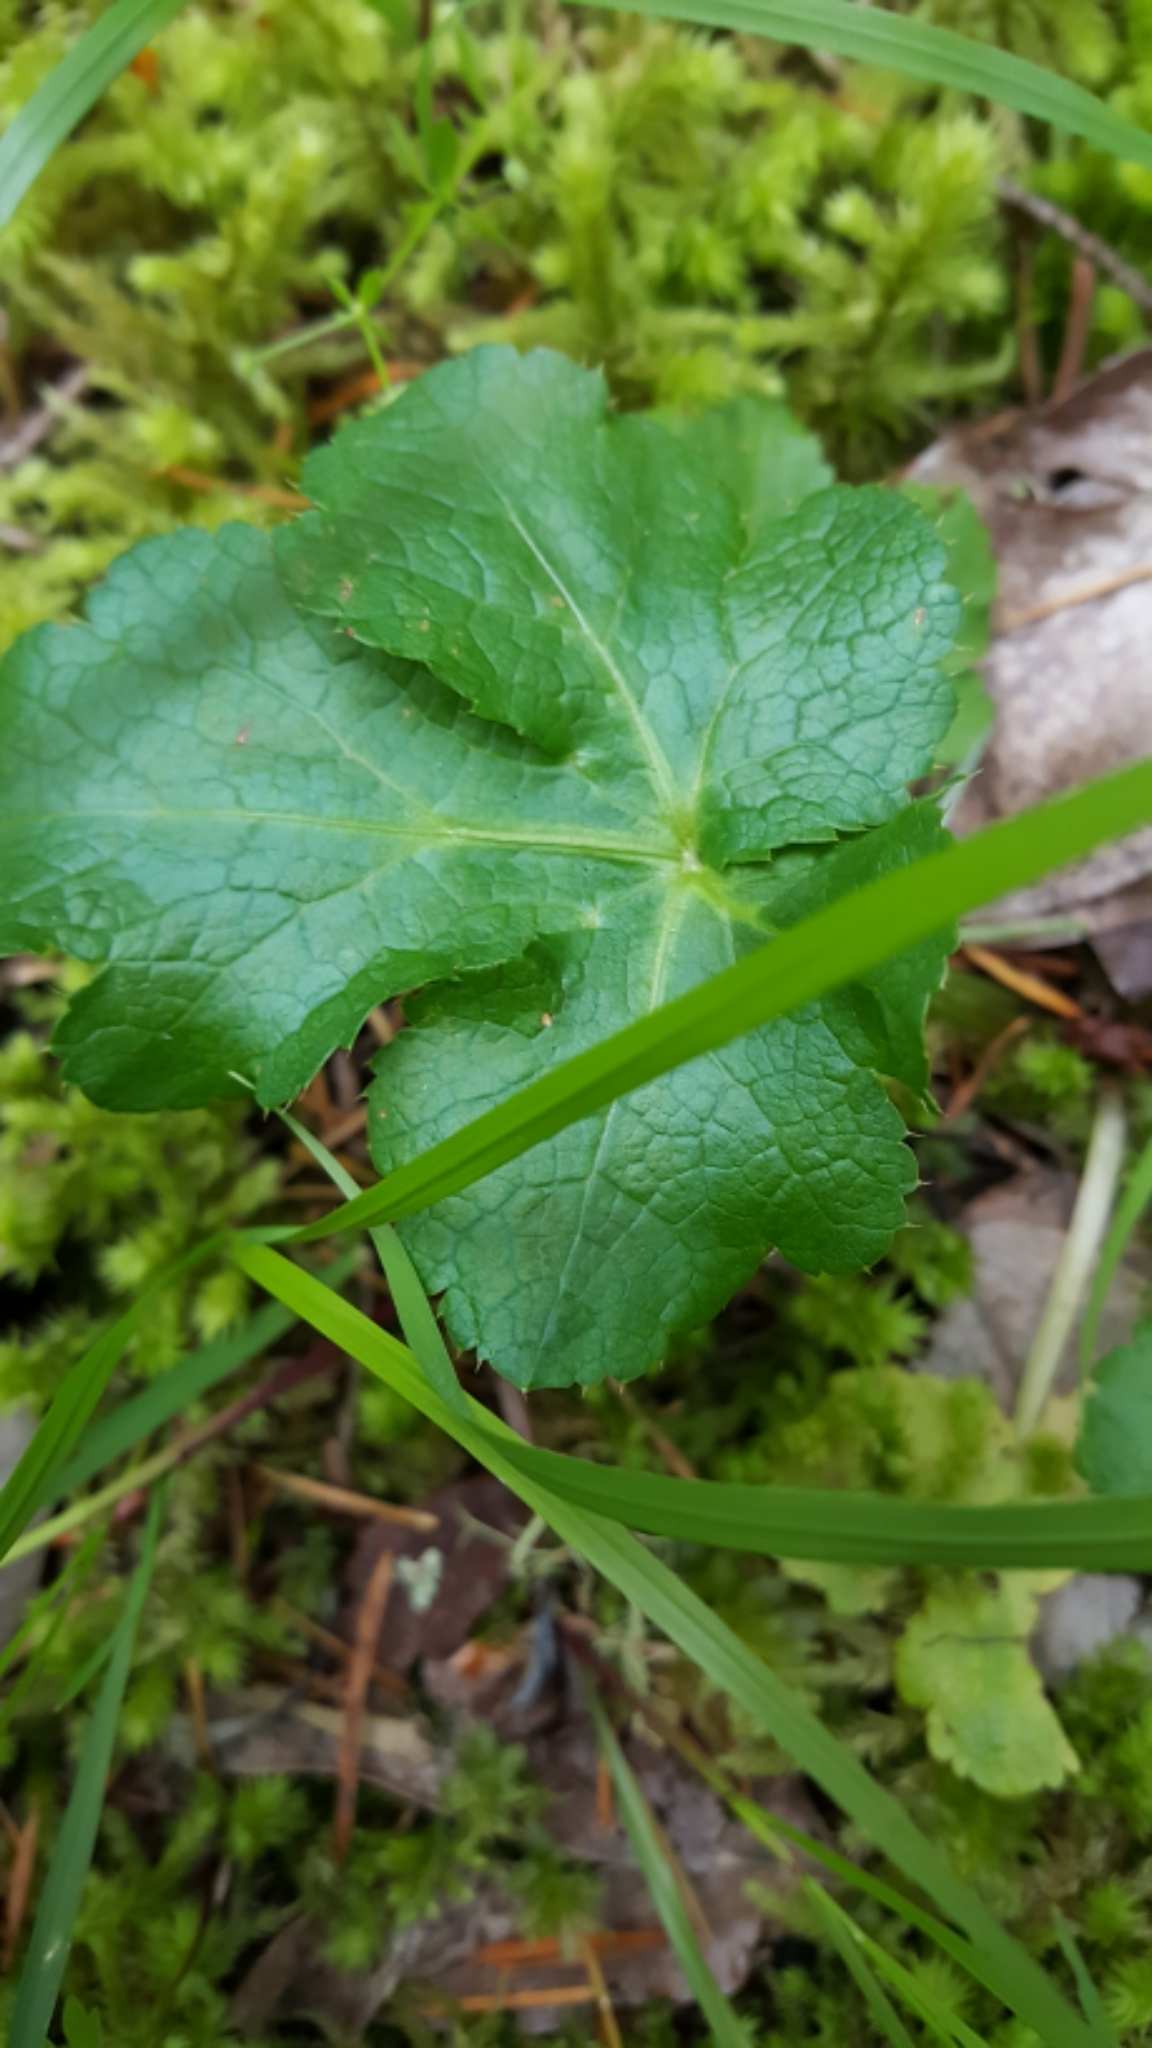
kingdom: Plantae
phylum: Tracheophyta
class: Magnoliopsida
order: Apiales
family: Apiaceae
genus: Sanicula
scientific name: Sanicula crassicaulis
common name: Western snakeroot
